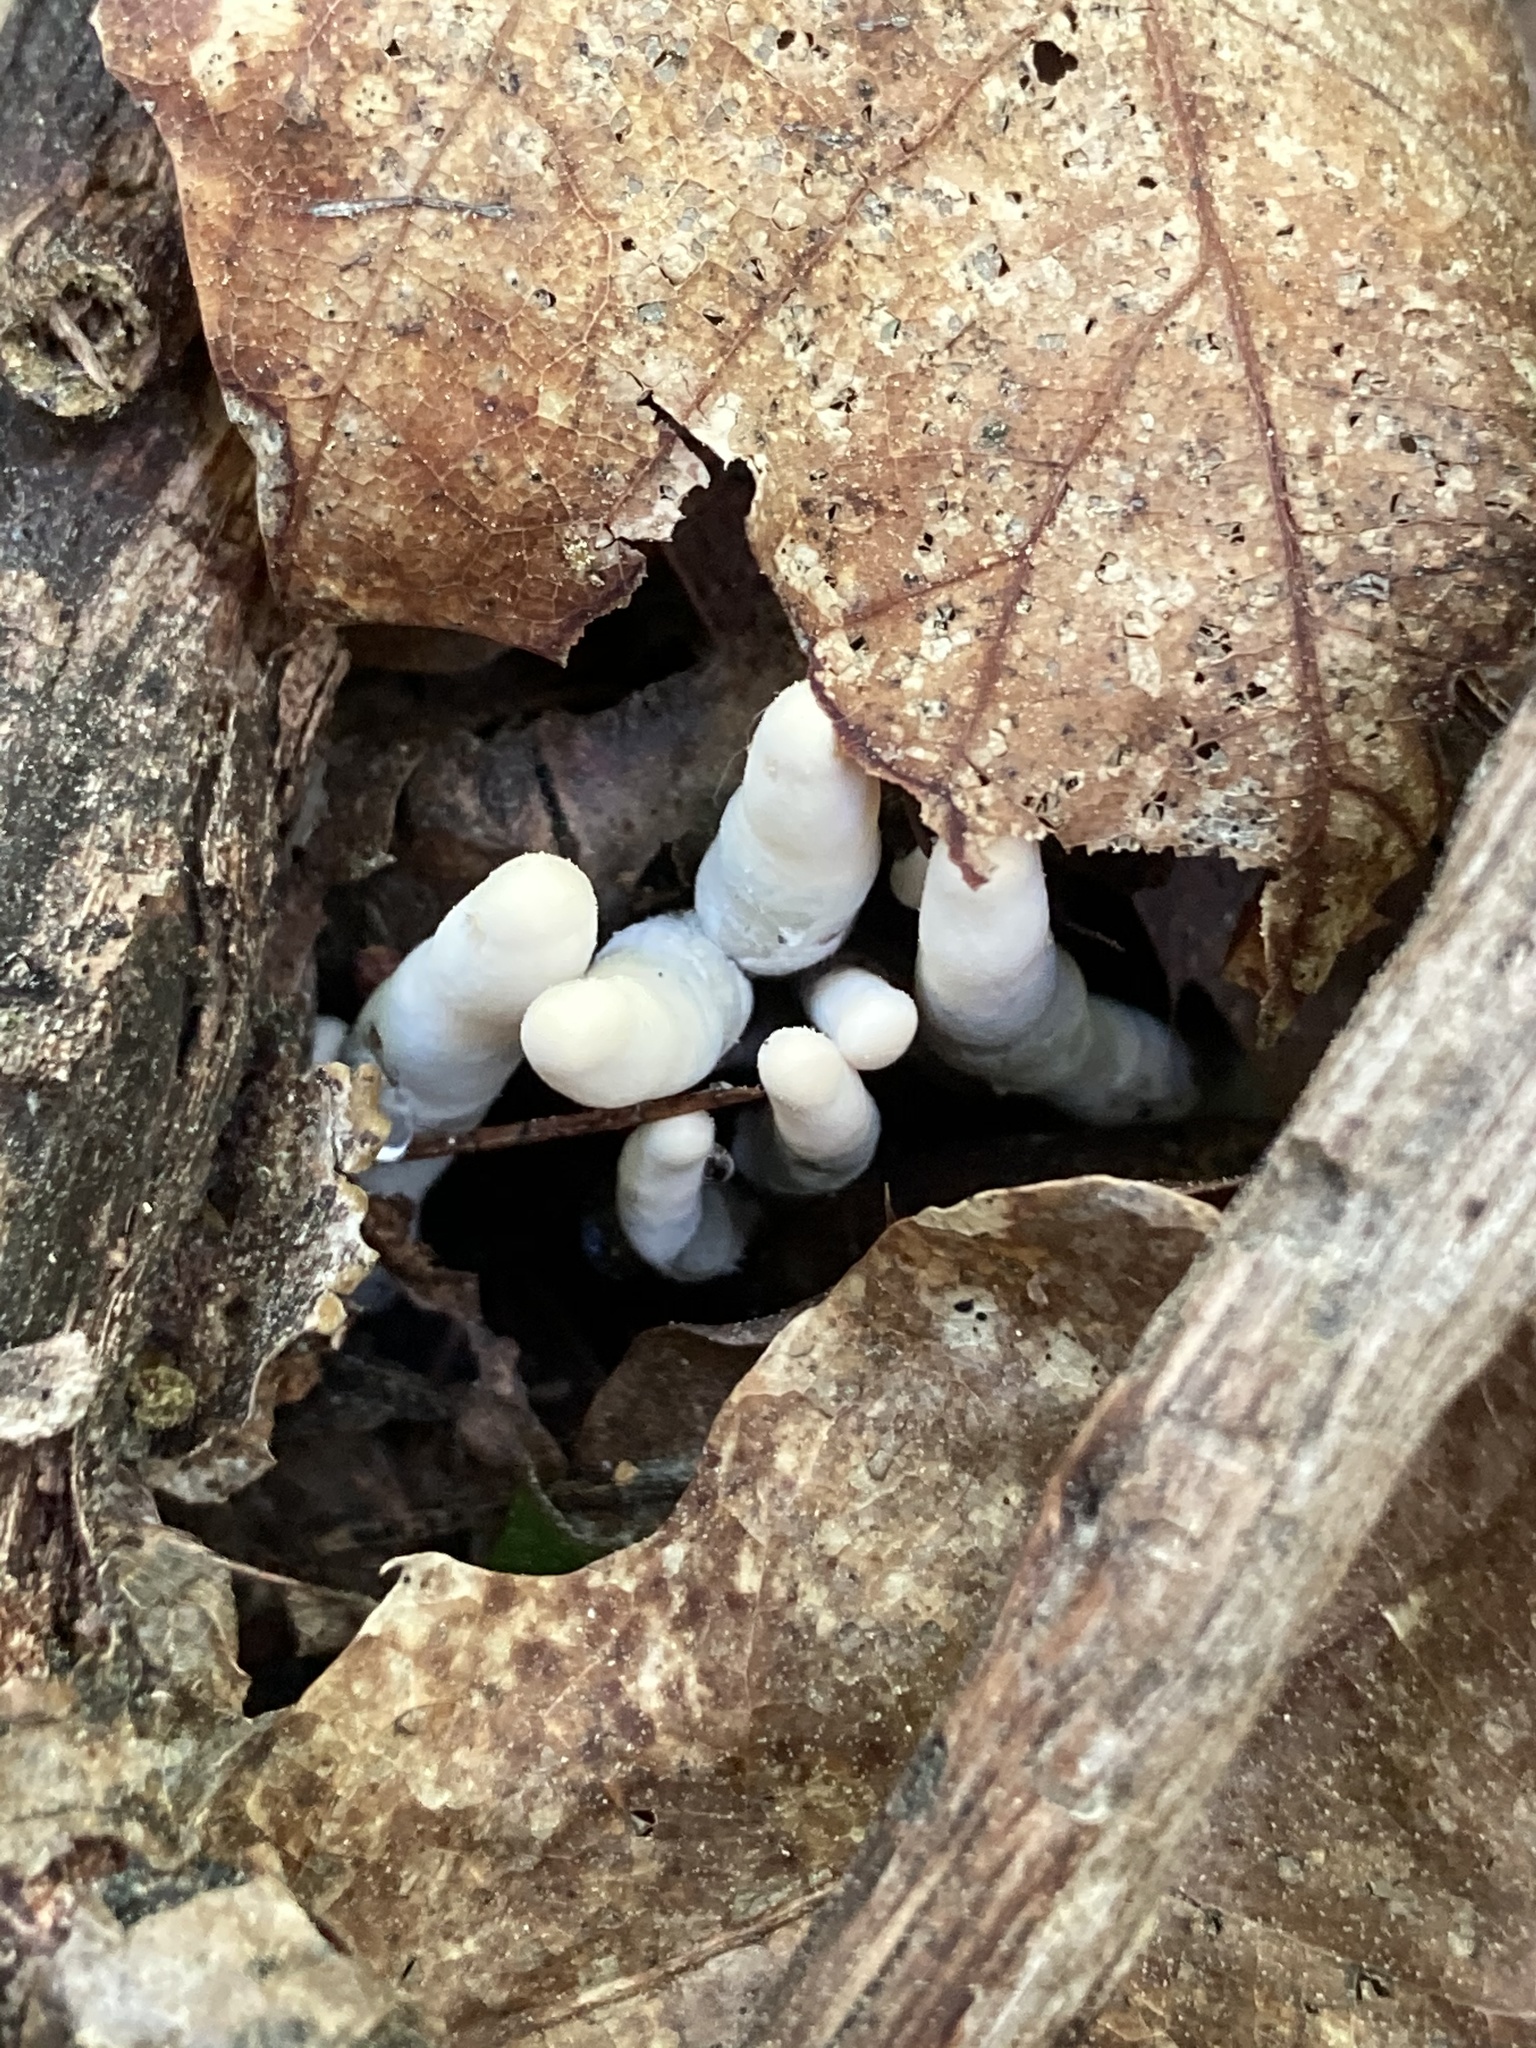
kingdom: Fungi
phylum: Ascomycota
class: Sordariomycetes
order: Xylariales
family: Xylariaceae
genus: Xylaria
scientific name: Xylaria polymorpha
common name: Dead man's fingers
